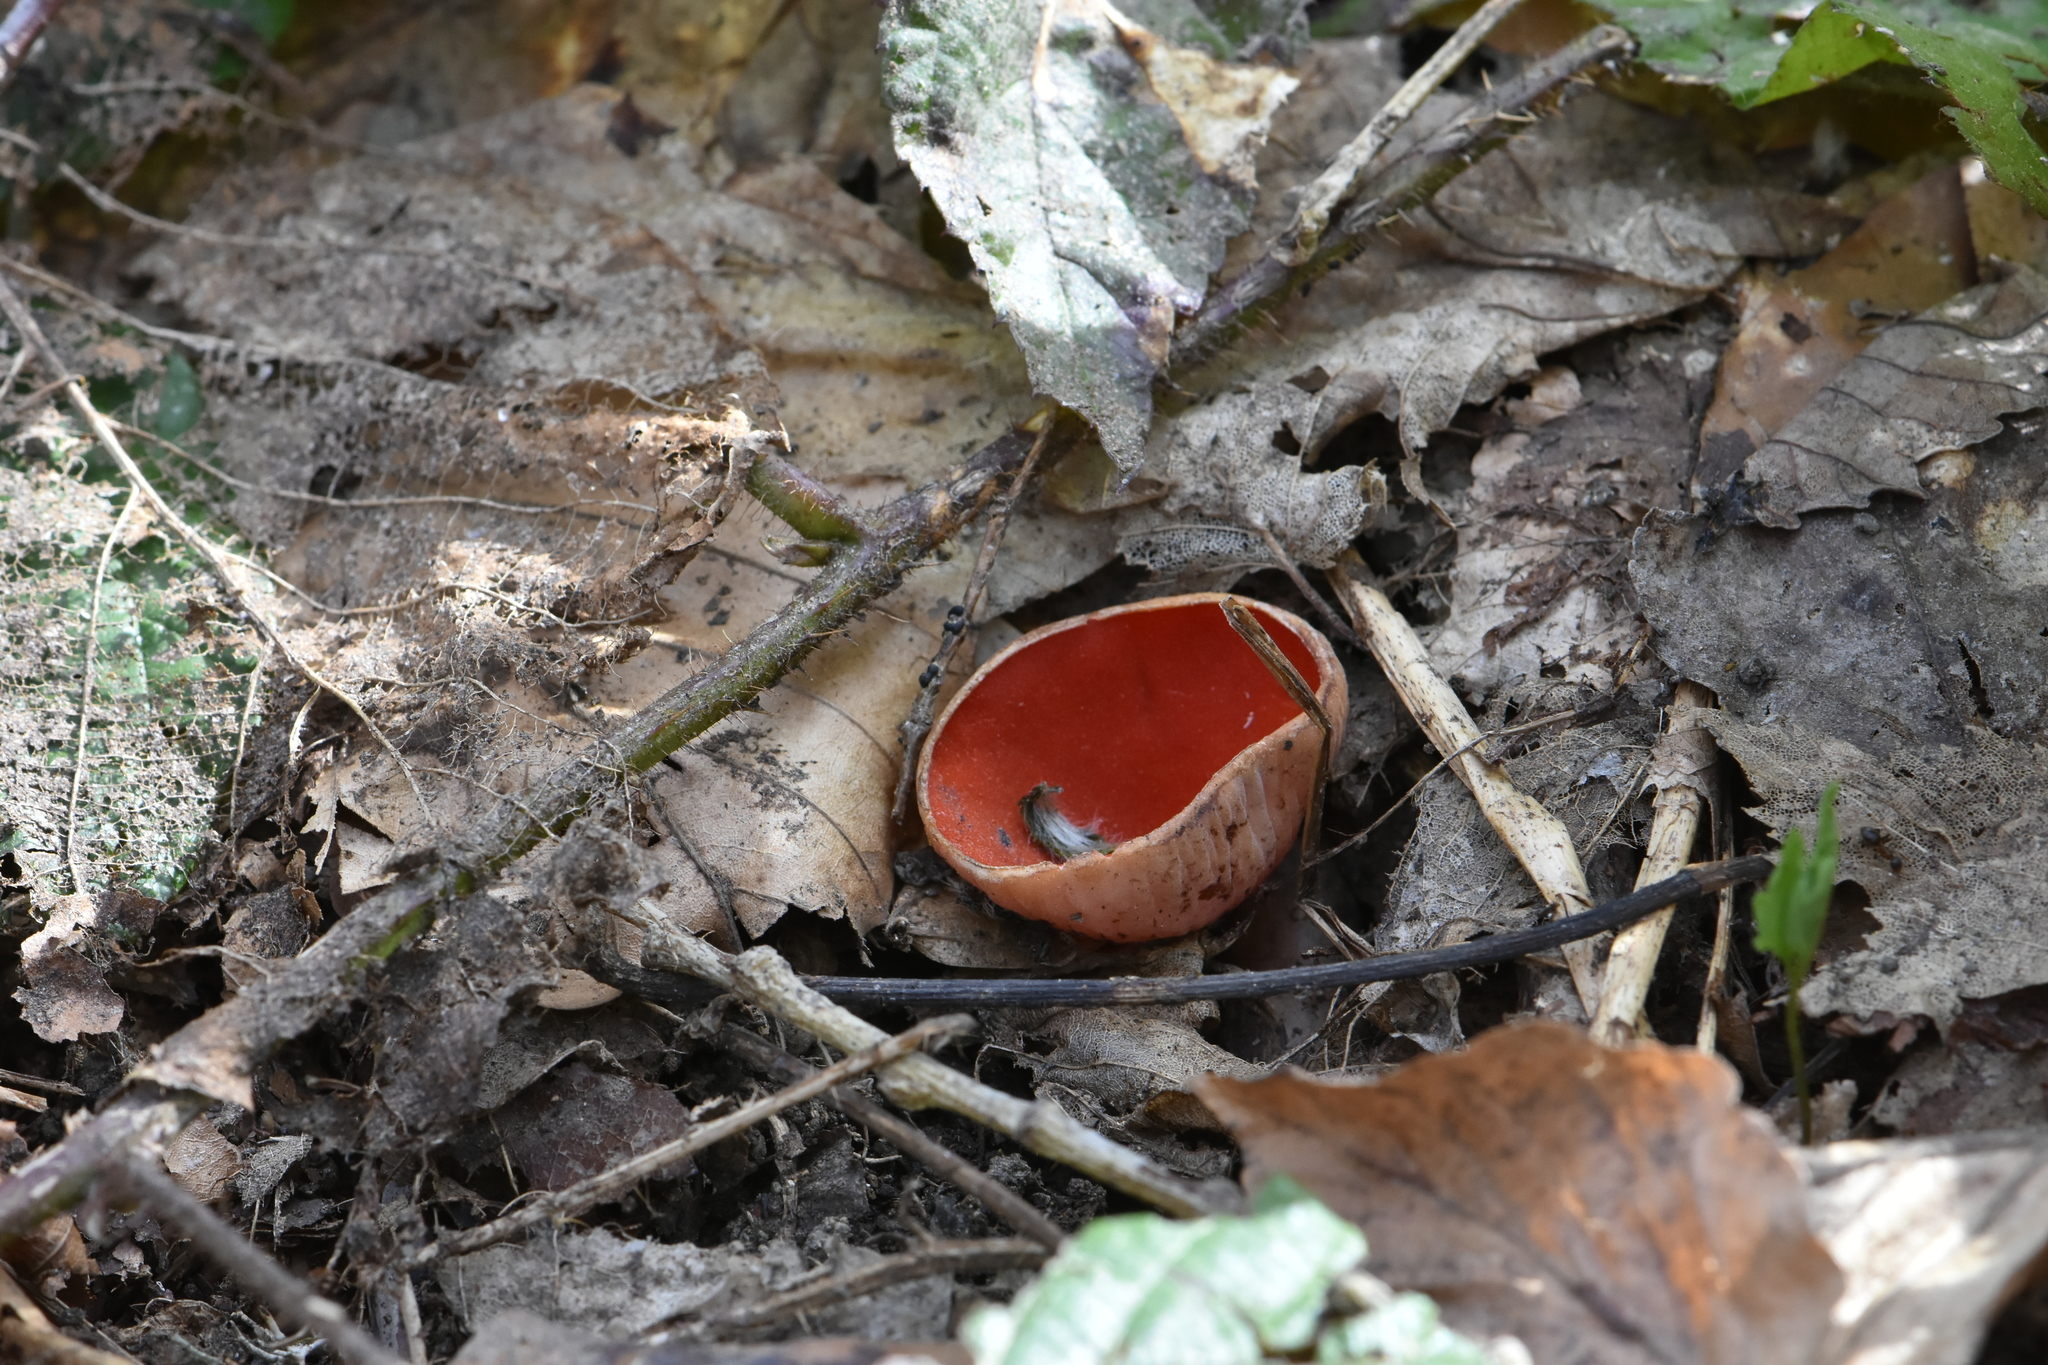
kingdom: Fungi
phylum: Ascomycota
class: Pezizomycetes
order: Pezizales
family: Sarcoscyphaceae
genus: Sarcoscypha
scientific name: Sarcoscypha
